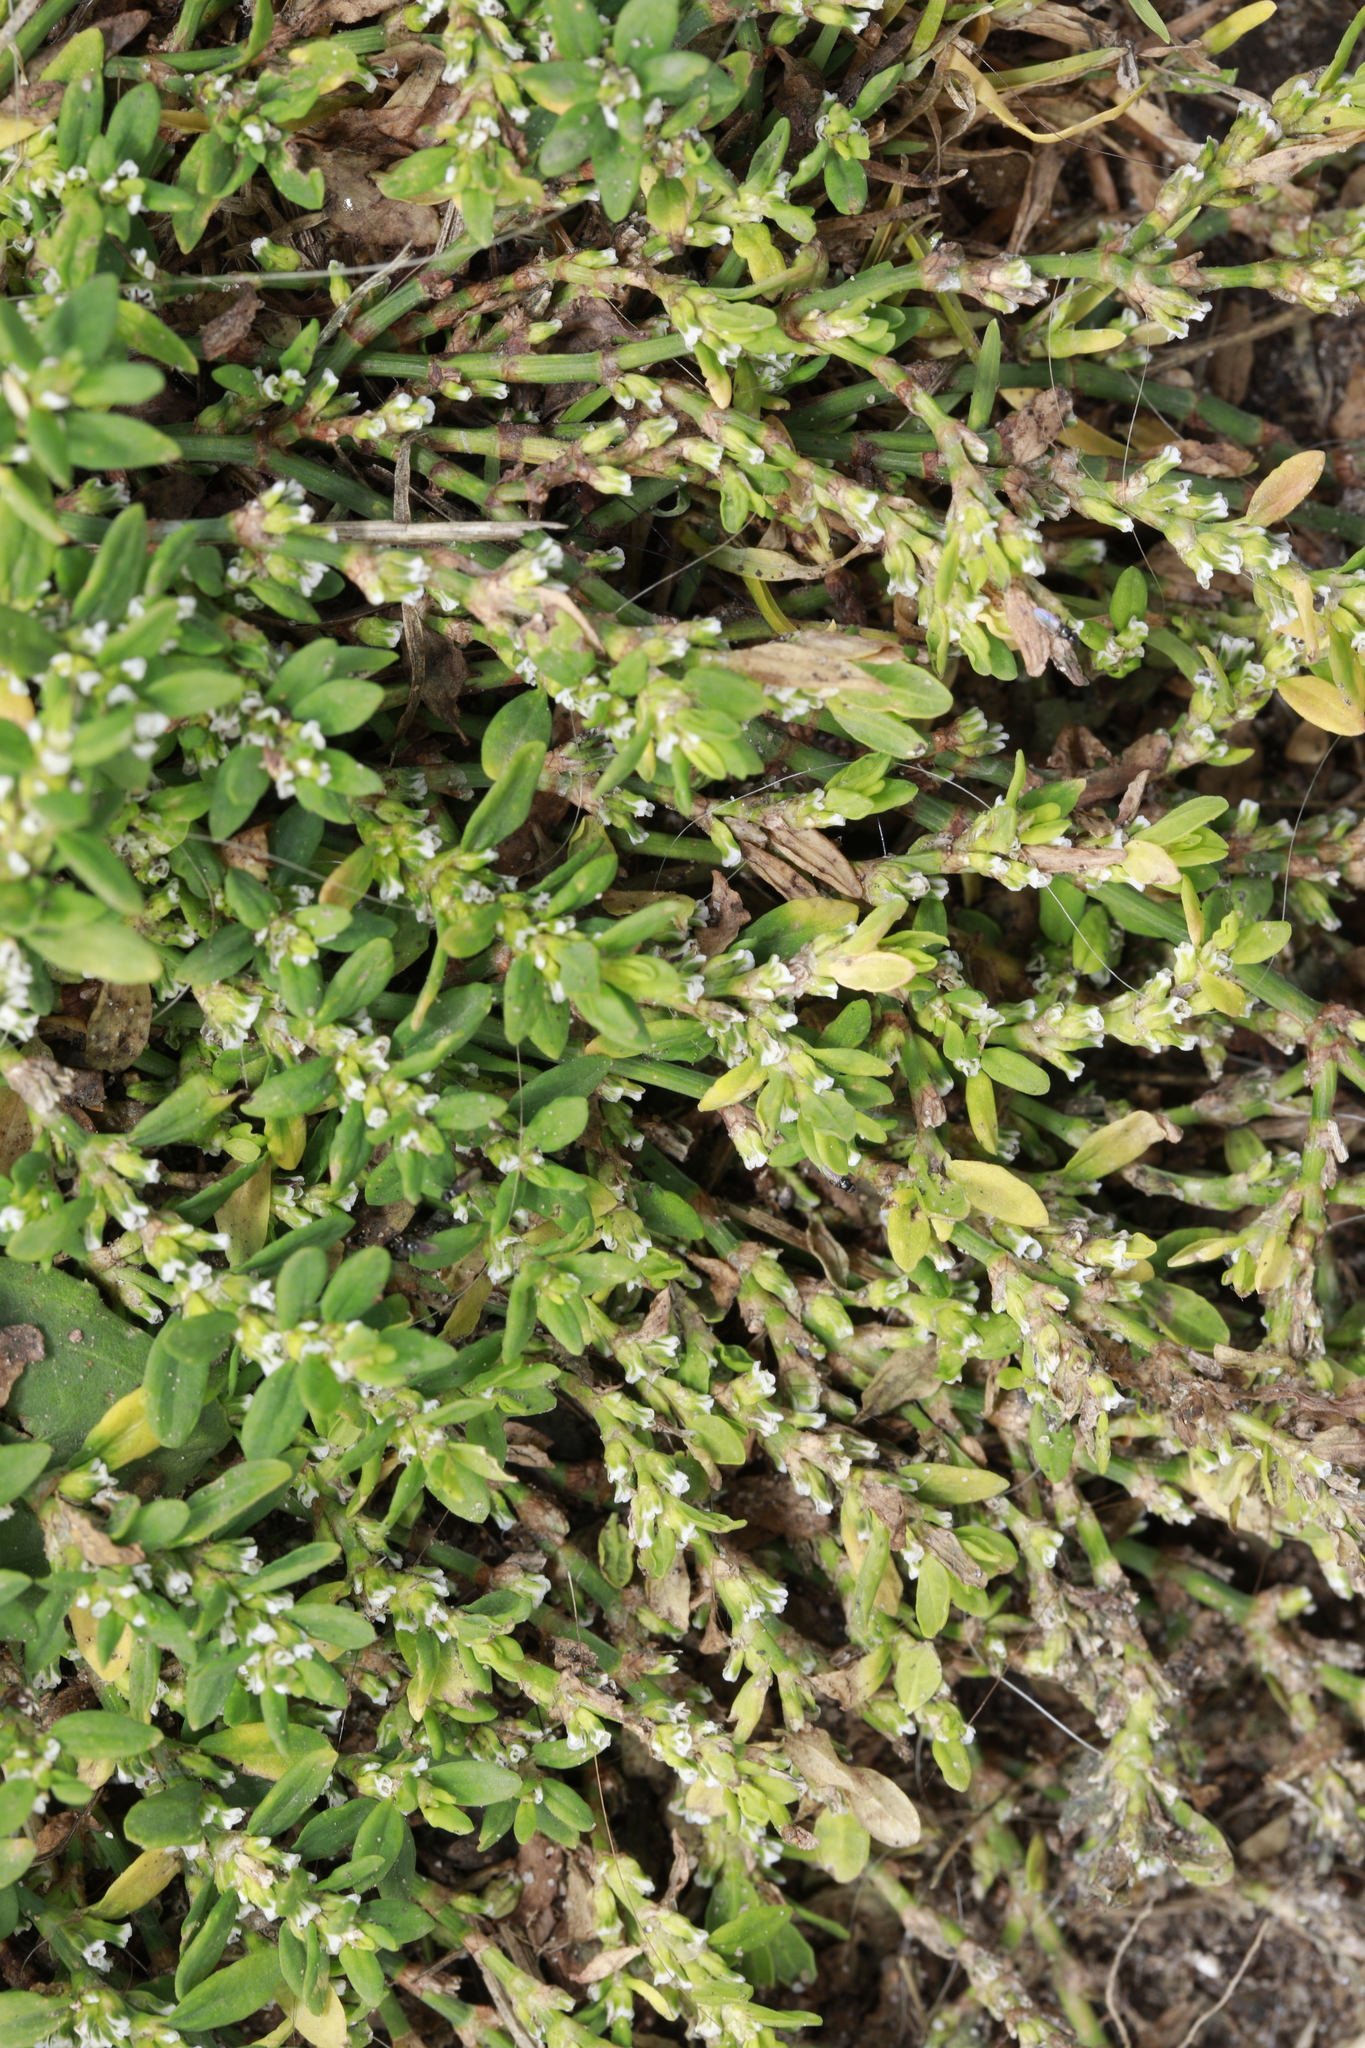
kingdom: Plantae
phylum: Tracheophyta
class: Magnoliopsida
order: Caryophyllales
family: Polygonaceae
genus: Polygonum
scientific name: Polygonum aviculare
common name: Prostrate knotweed
